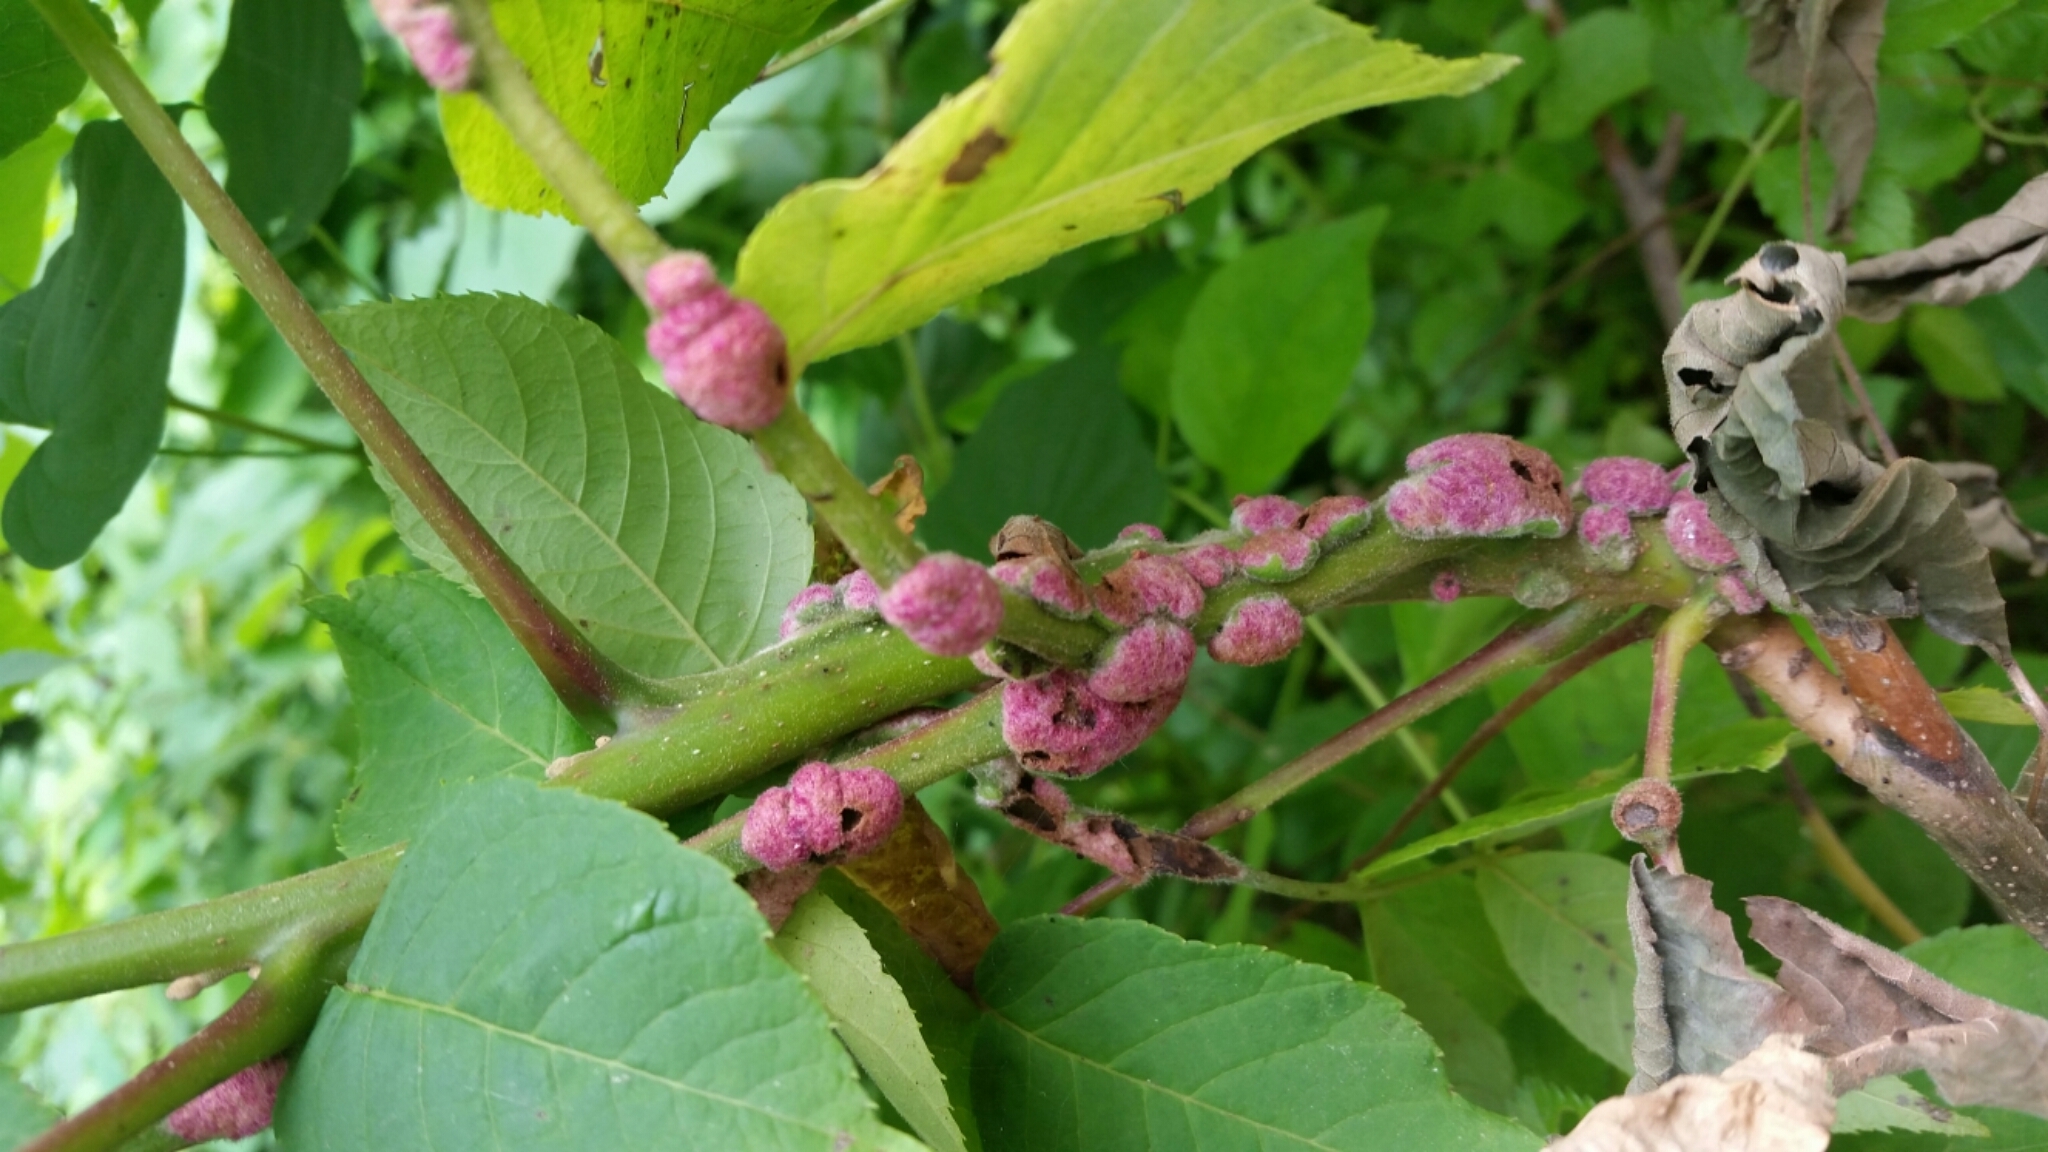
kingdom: Animalia
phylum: Arthropoda
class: Arachnida
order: Trombidiformes
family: Eriophyidae
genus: Aceria
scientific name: Aceria
